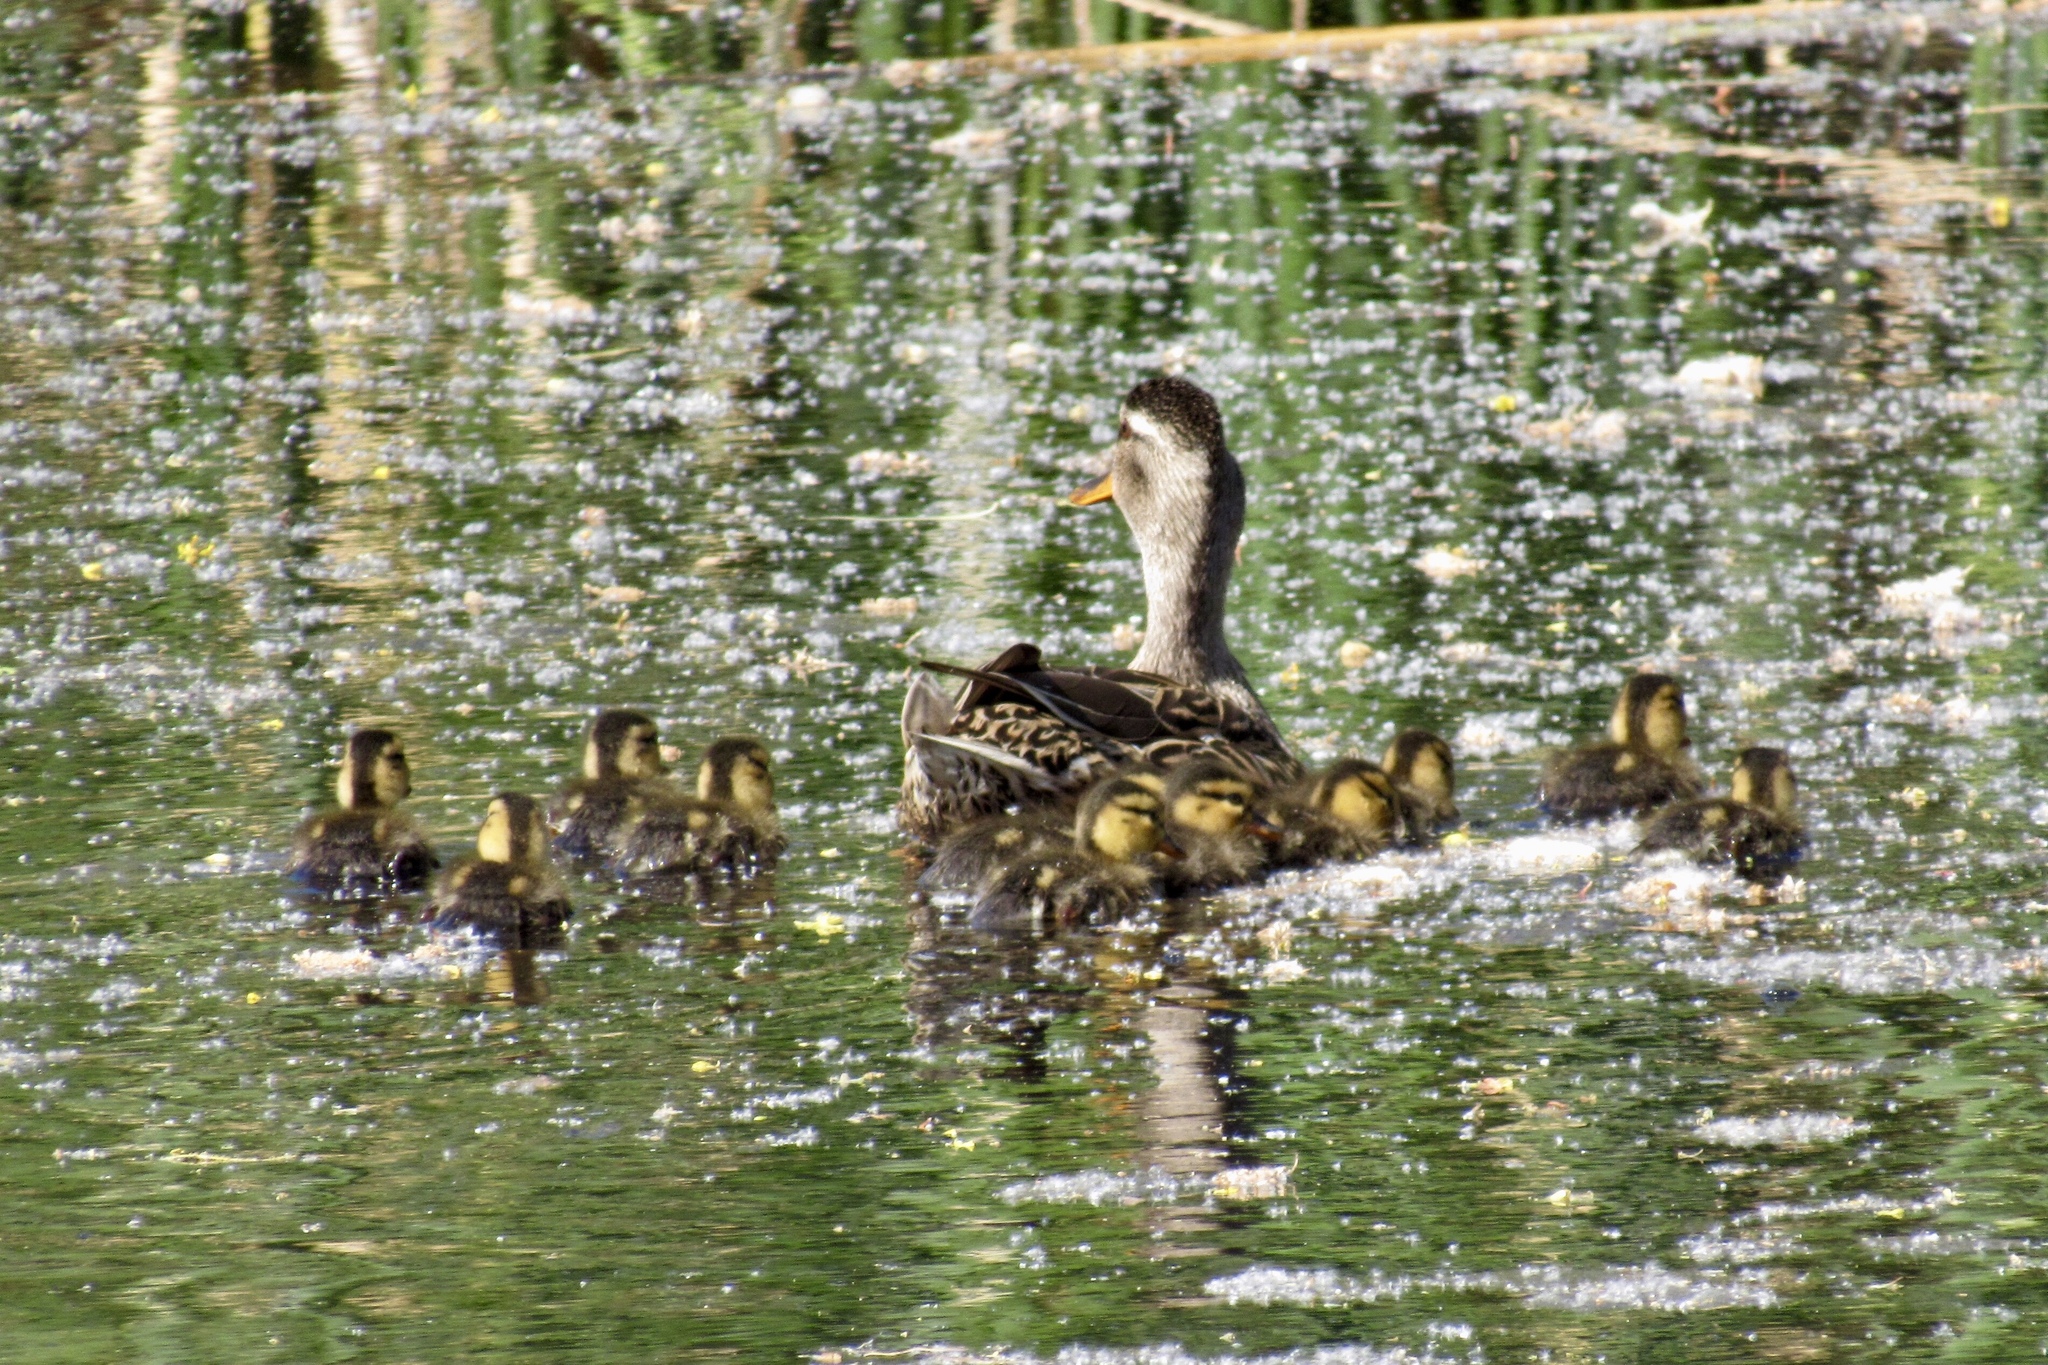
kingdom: Animalia
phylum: Chordata
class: Aves
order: Anseriformes
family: Anatidae
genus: Anas
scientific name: Anas platyrhynchos
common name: Mallard
